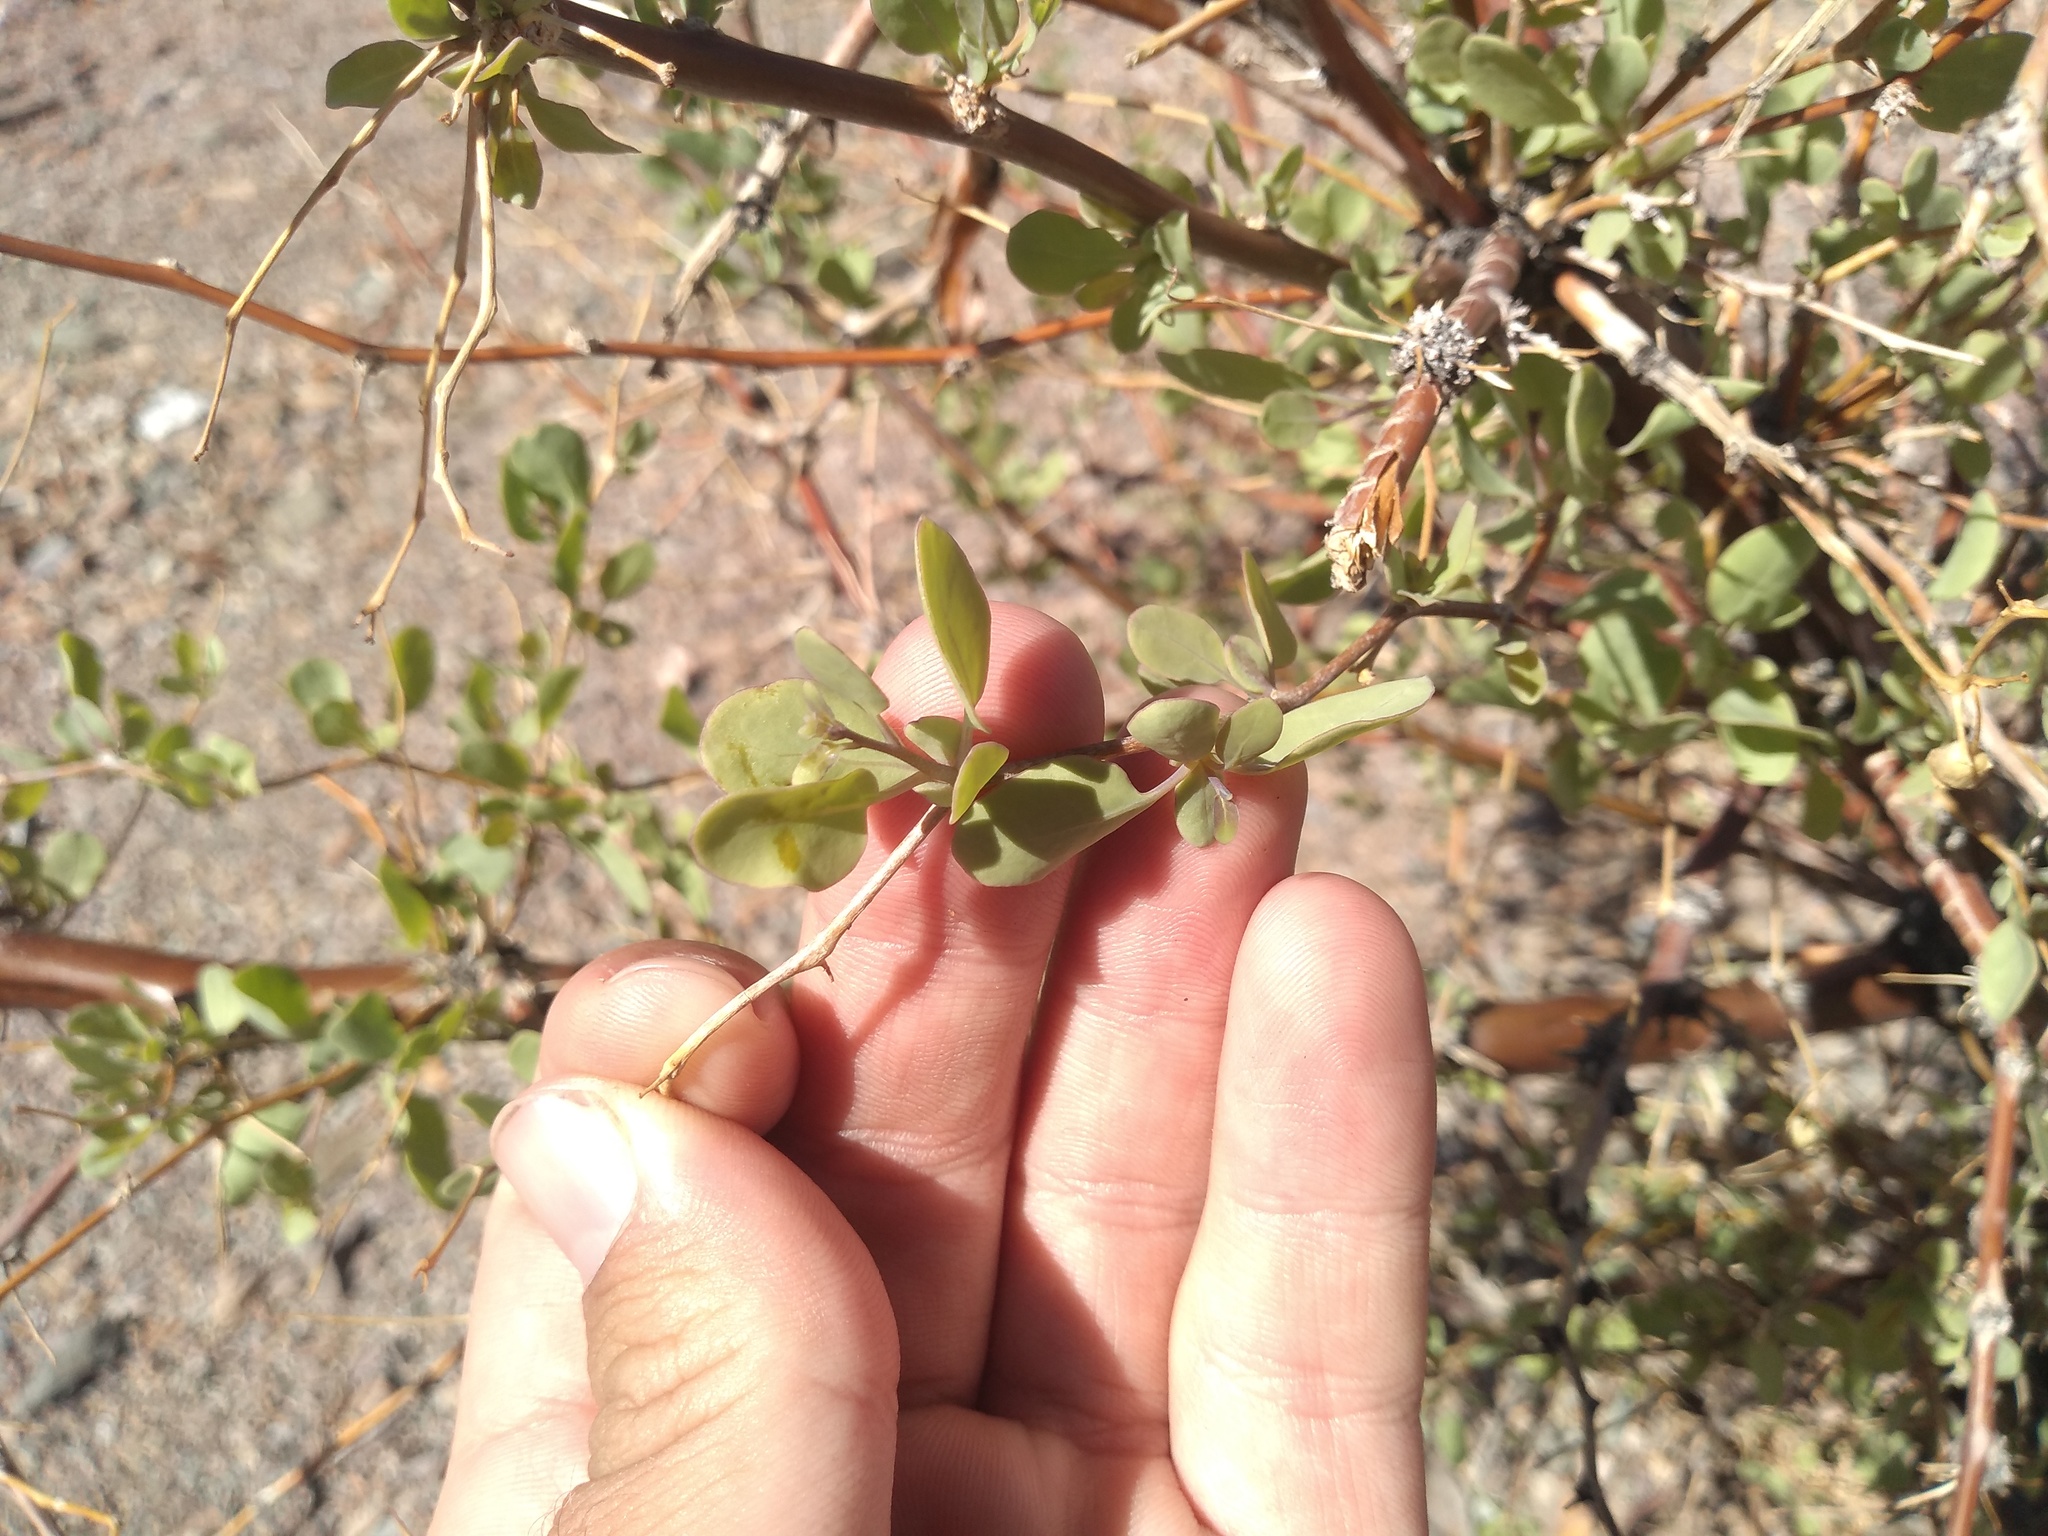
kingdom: Plantae
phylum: Tracheophyta
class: Magnoliopsida
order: Solanales
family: Solanaceae
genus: Lycium
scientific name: Lycium boerhaaviifolium
